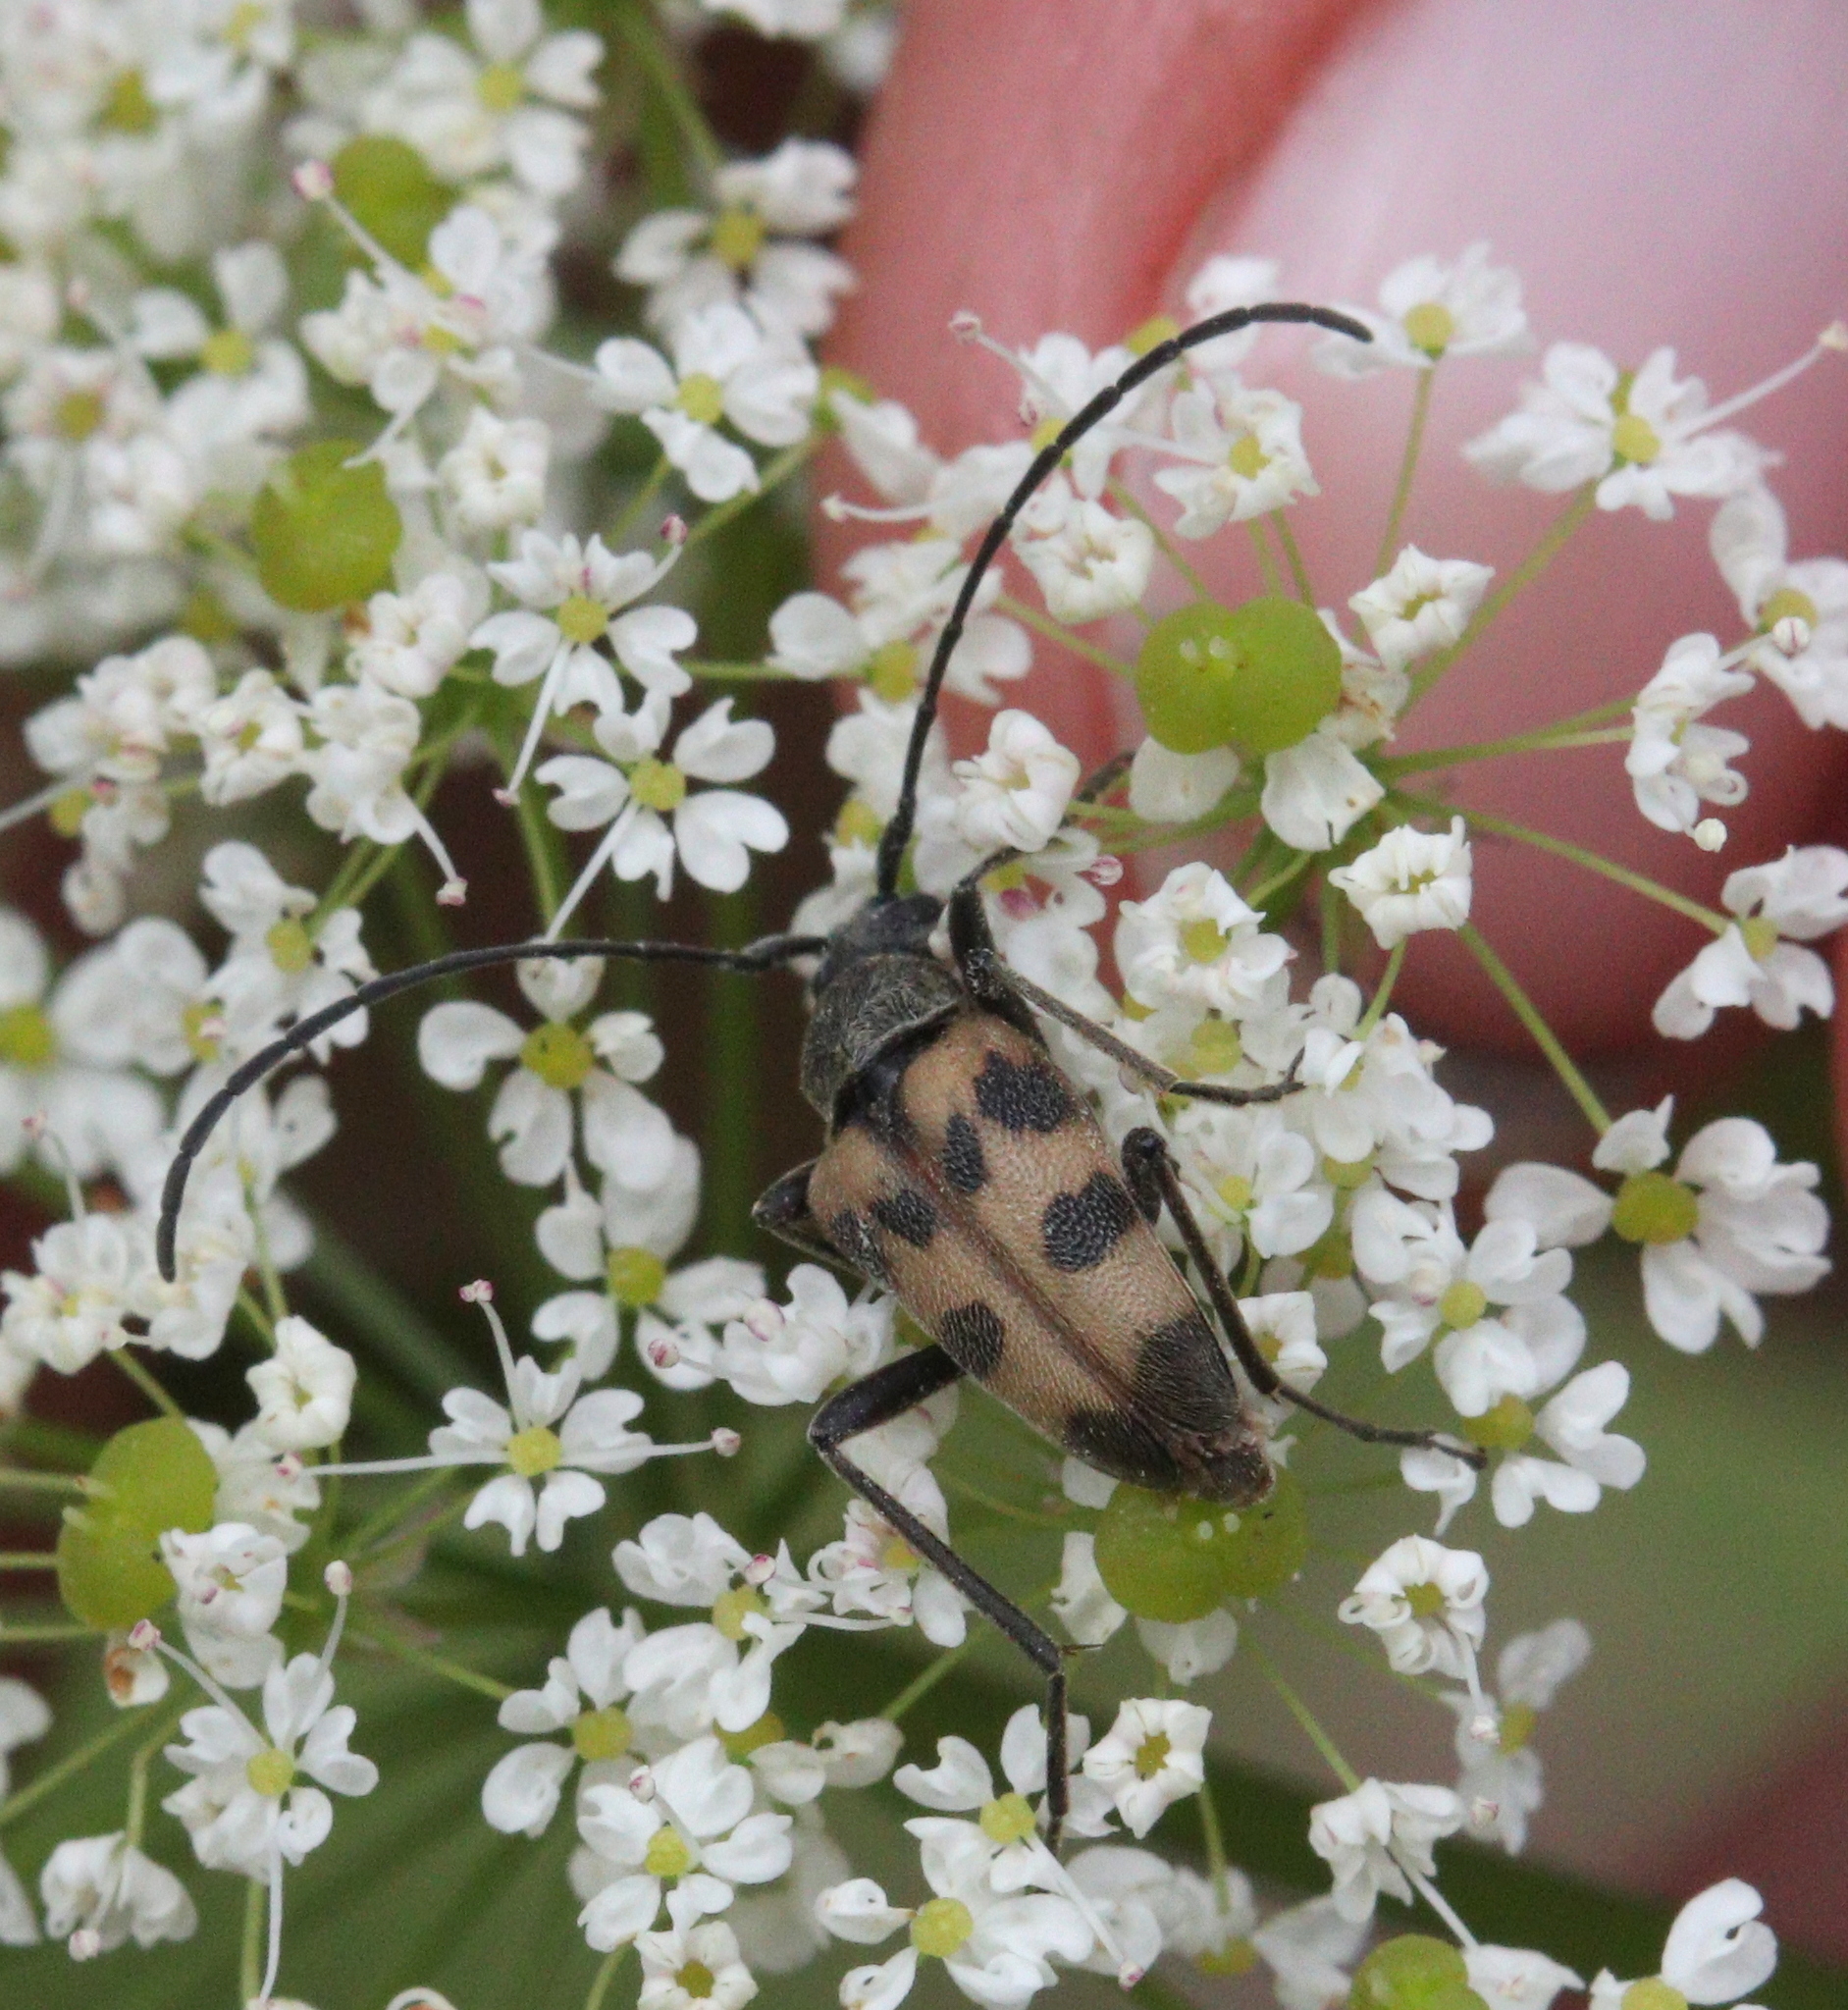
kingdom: Animalia
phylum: Arthropoda
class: Insecta
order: Coleoptera
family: Cerambycidae
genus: Pachytodes
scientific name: Pachytodes cerambyciformis
